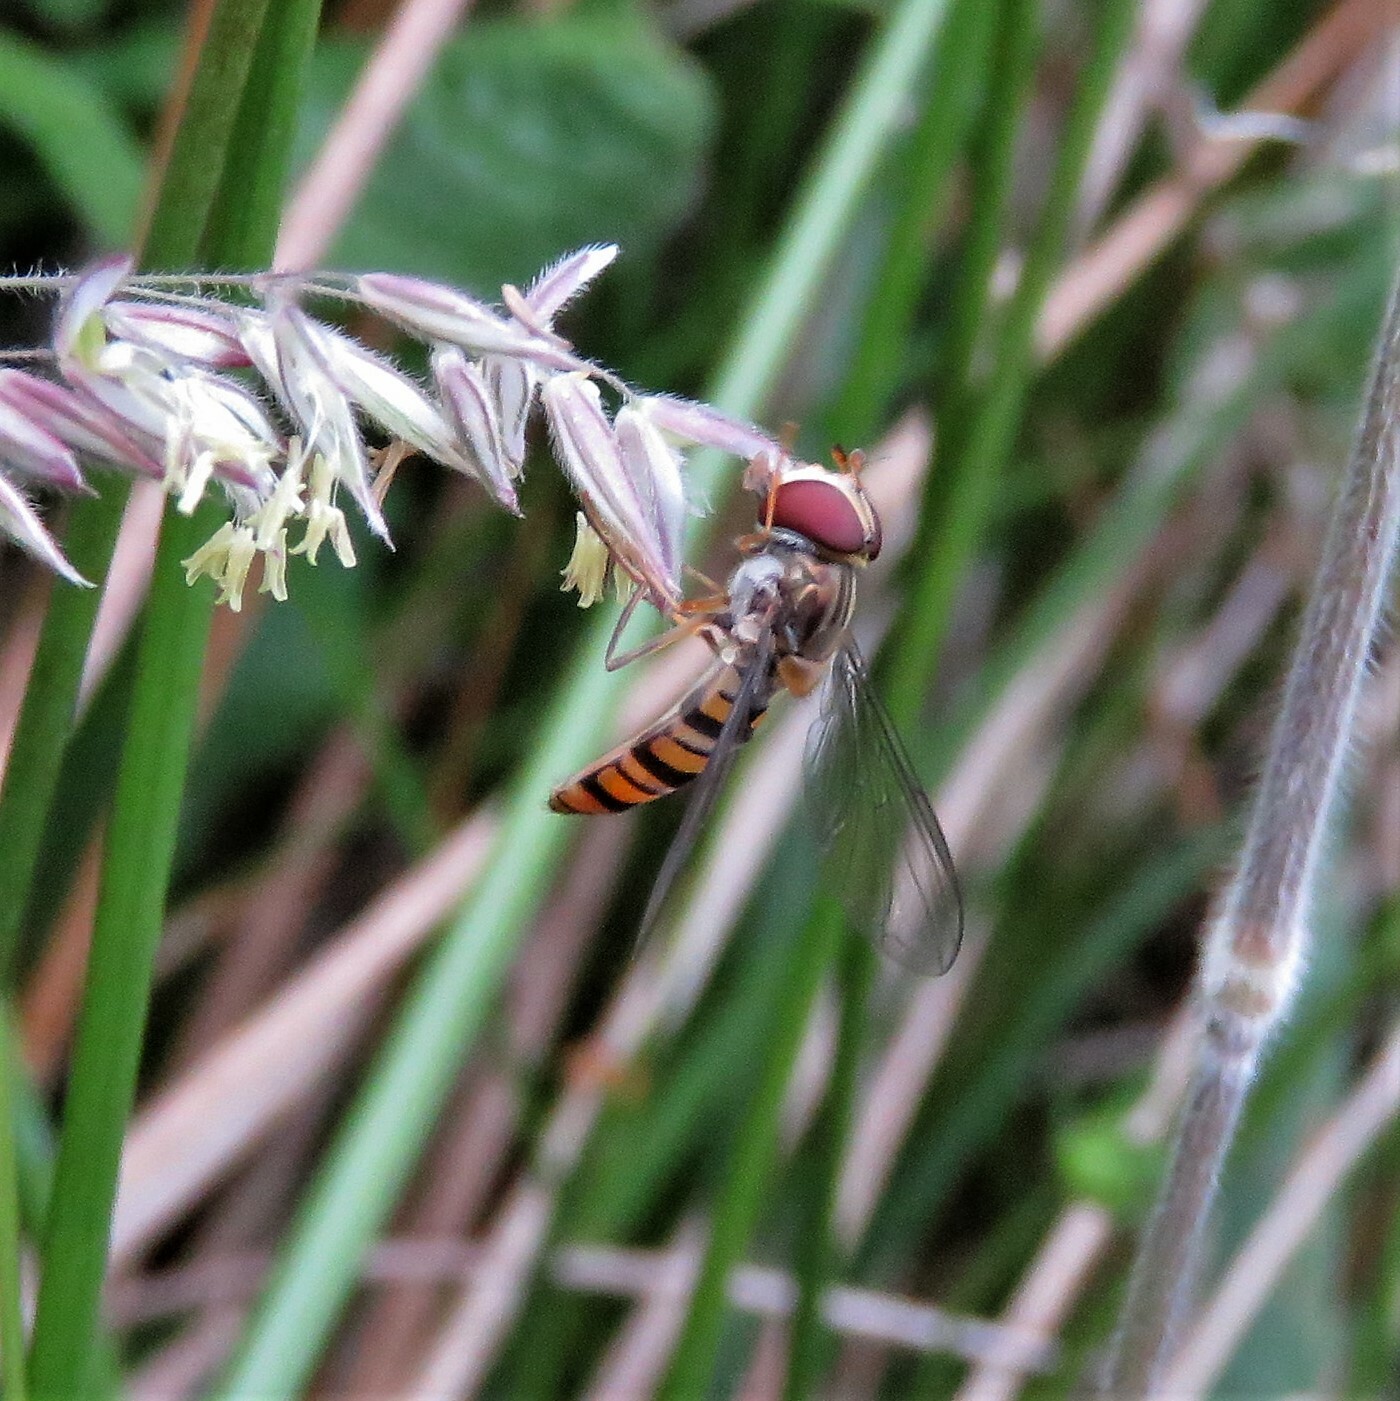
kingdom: Animalia
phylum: Arthropoda
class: Insecta
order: Diptera
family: Syrphidae
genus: Episyrphus
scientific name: Episyrphus balteatus
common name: Marmalade hoverfly
